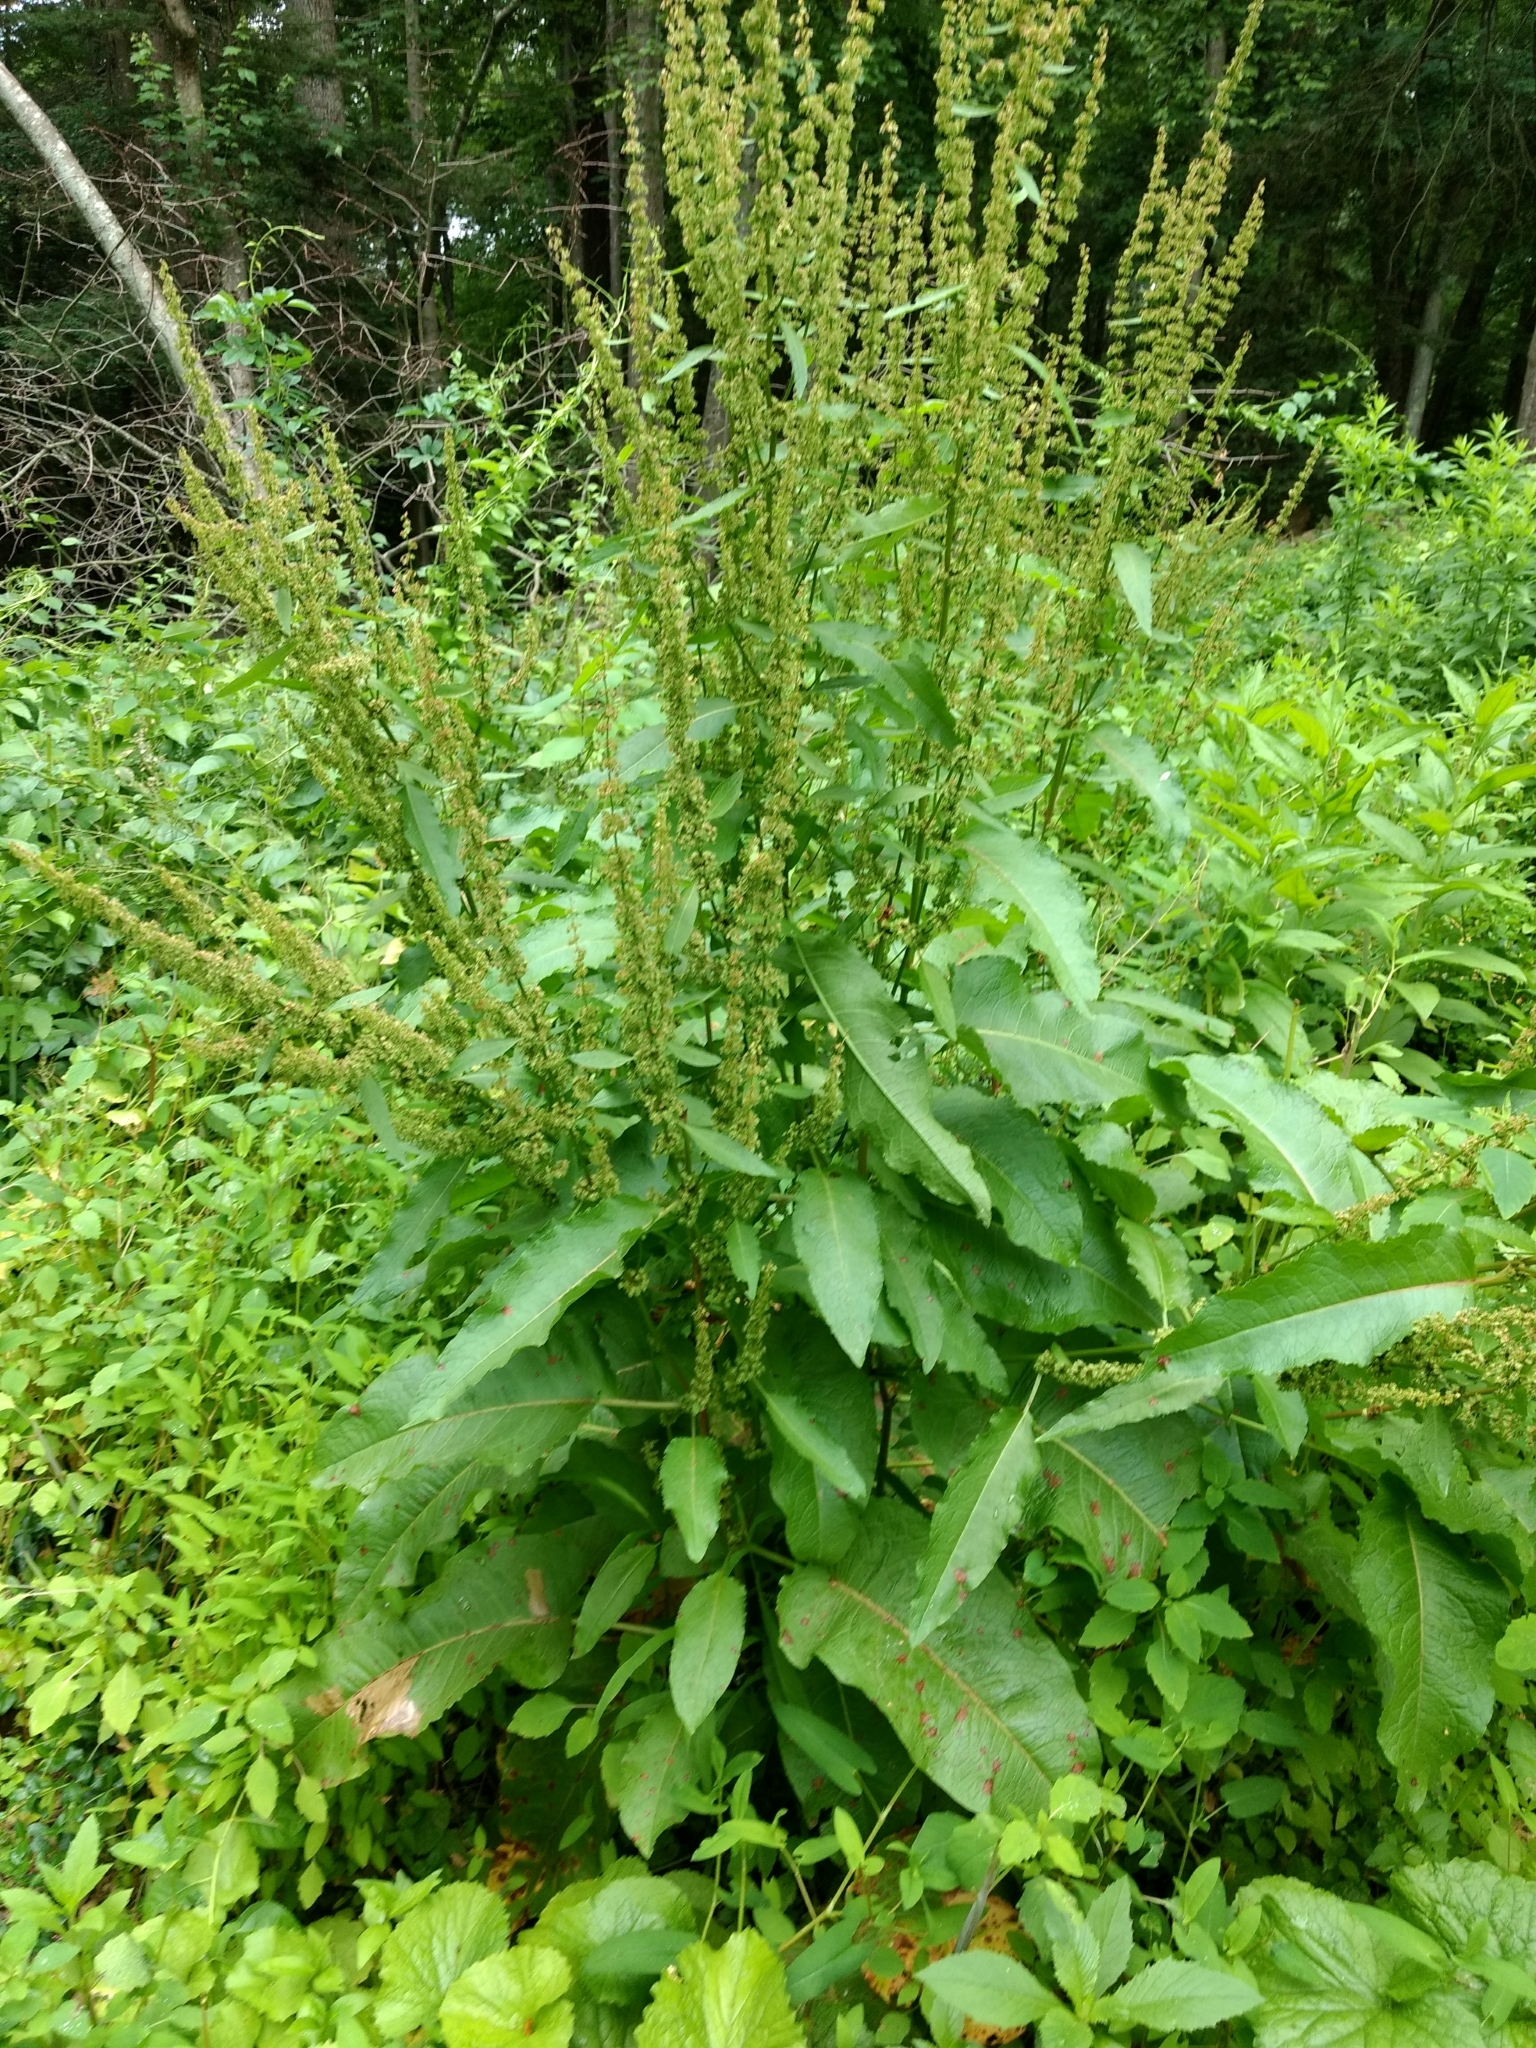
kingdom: Plantae
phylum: Tracheophyta
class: Magnoliopsida
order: Caryophyllales
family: Polygonaceae
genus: Rumex
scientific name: Rumex obtusifolius
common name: Bitter dock
